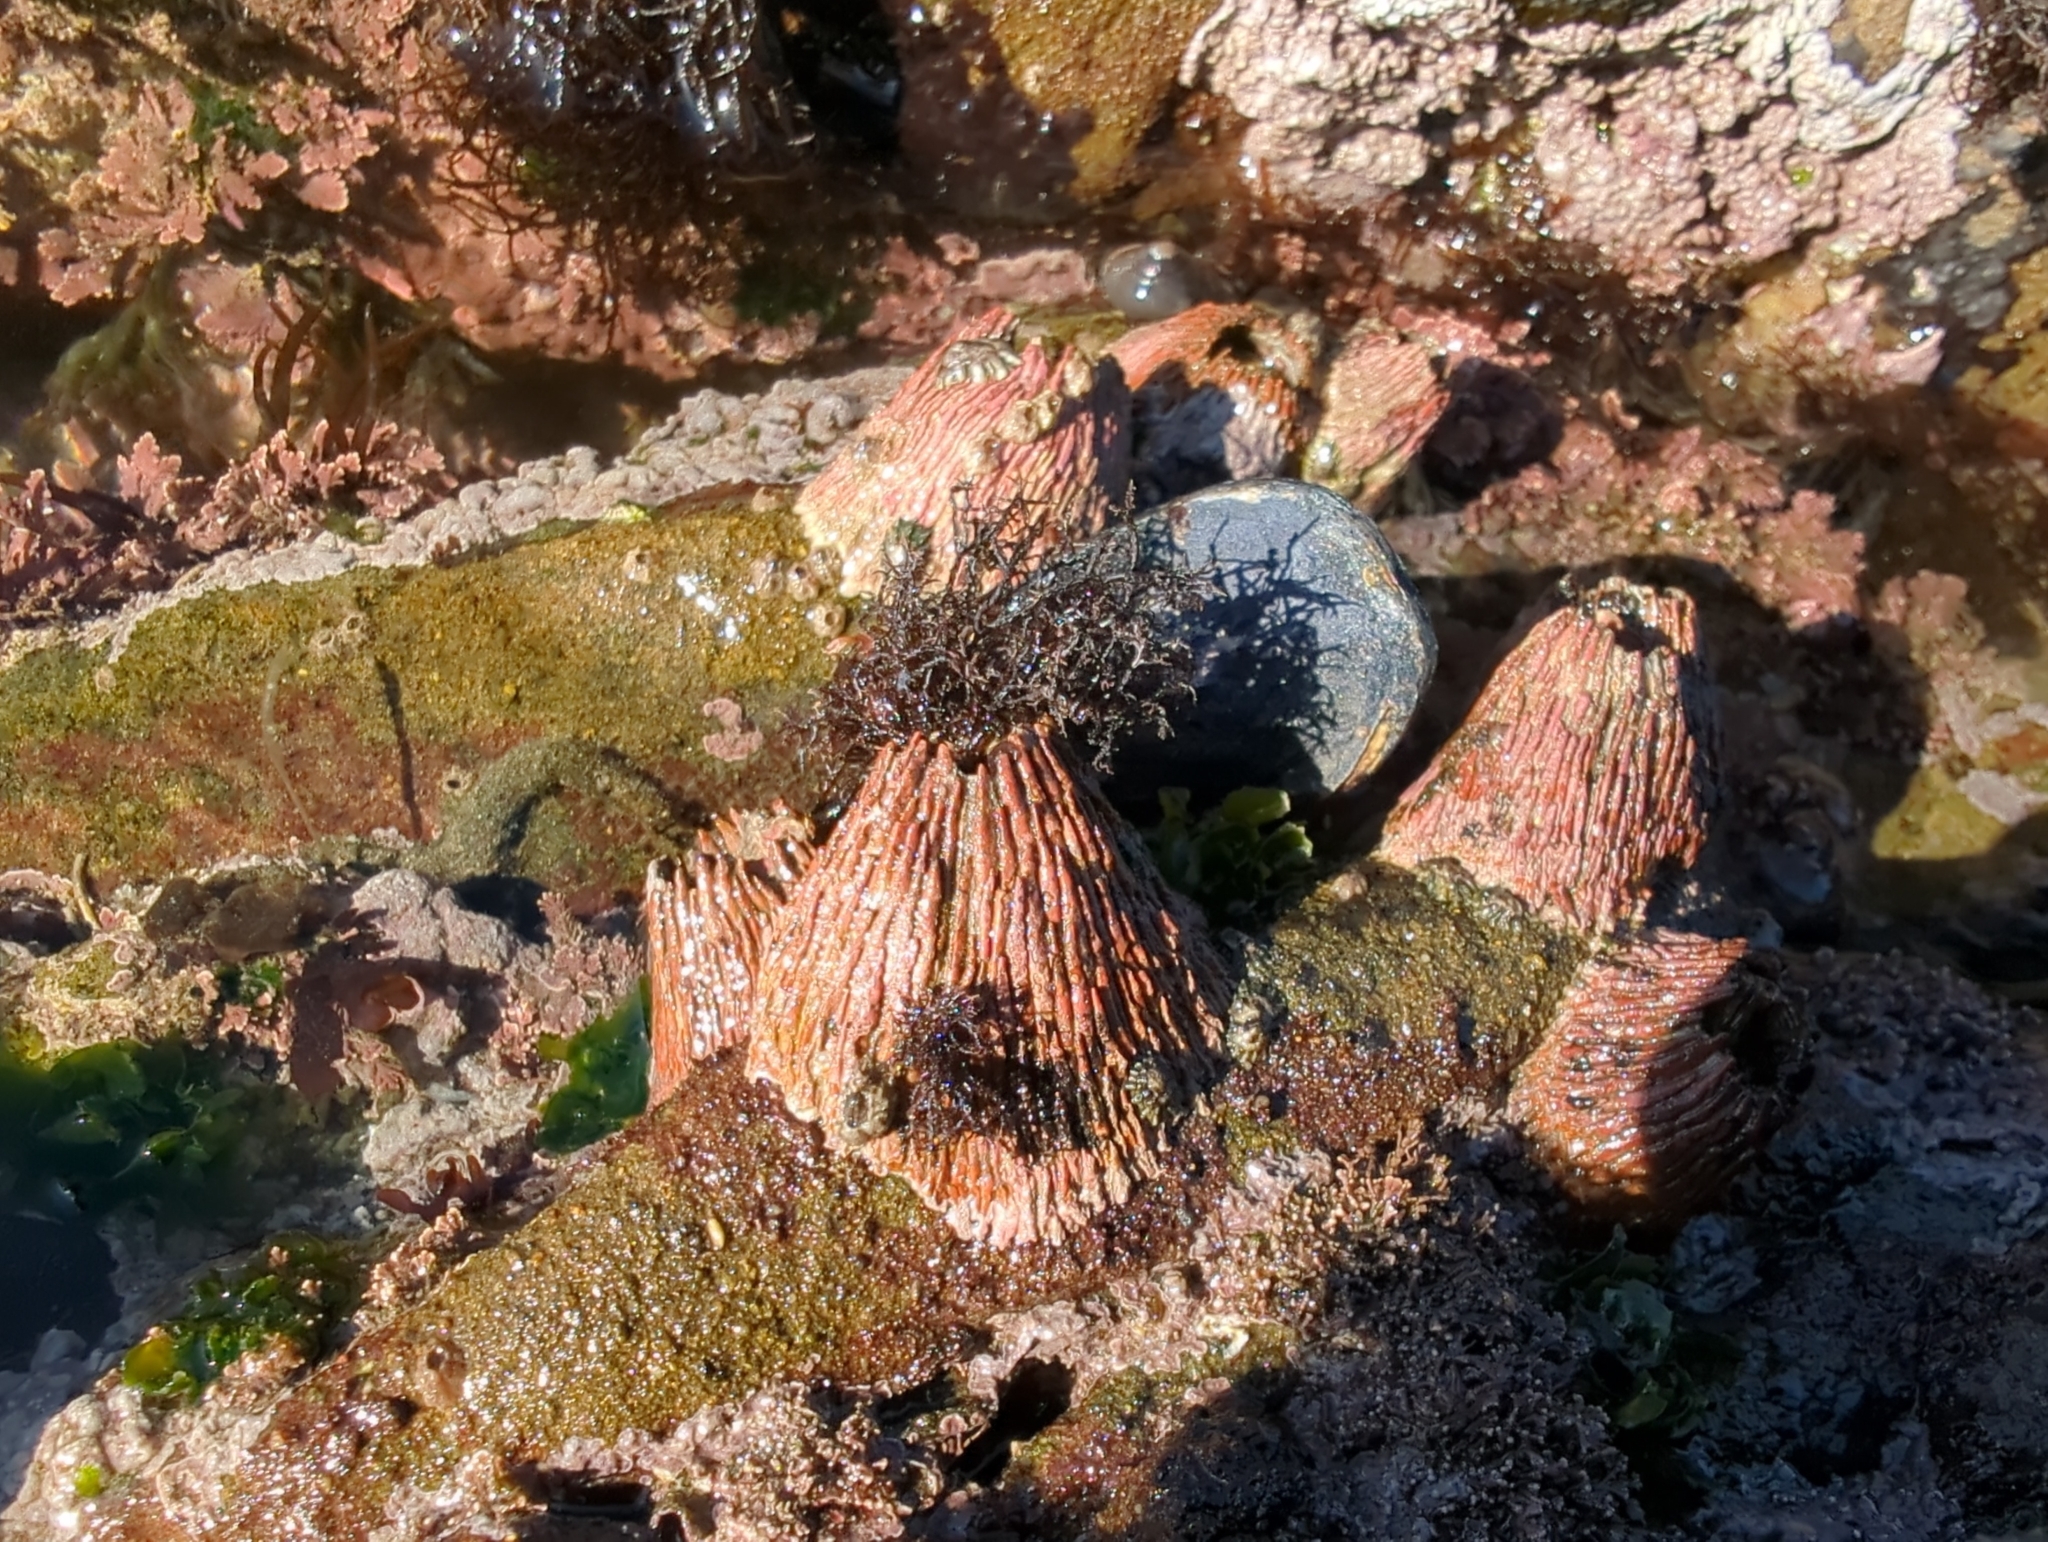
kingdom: Animalia
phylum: Arthropoda
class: Maxillopoda
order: Sessilia
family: Tetraclitidae
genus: Tetraclita
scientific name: Tetraclita rubescens
